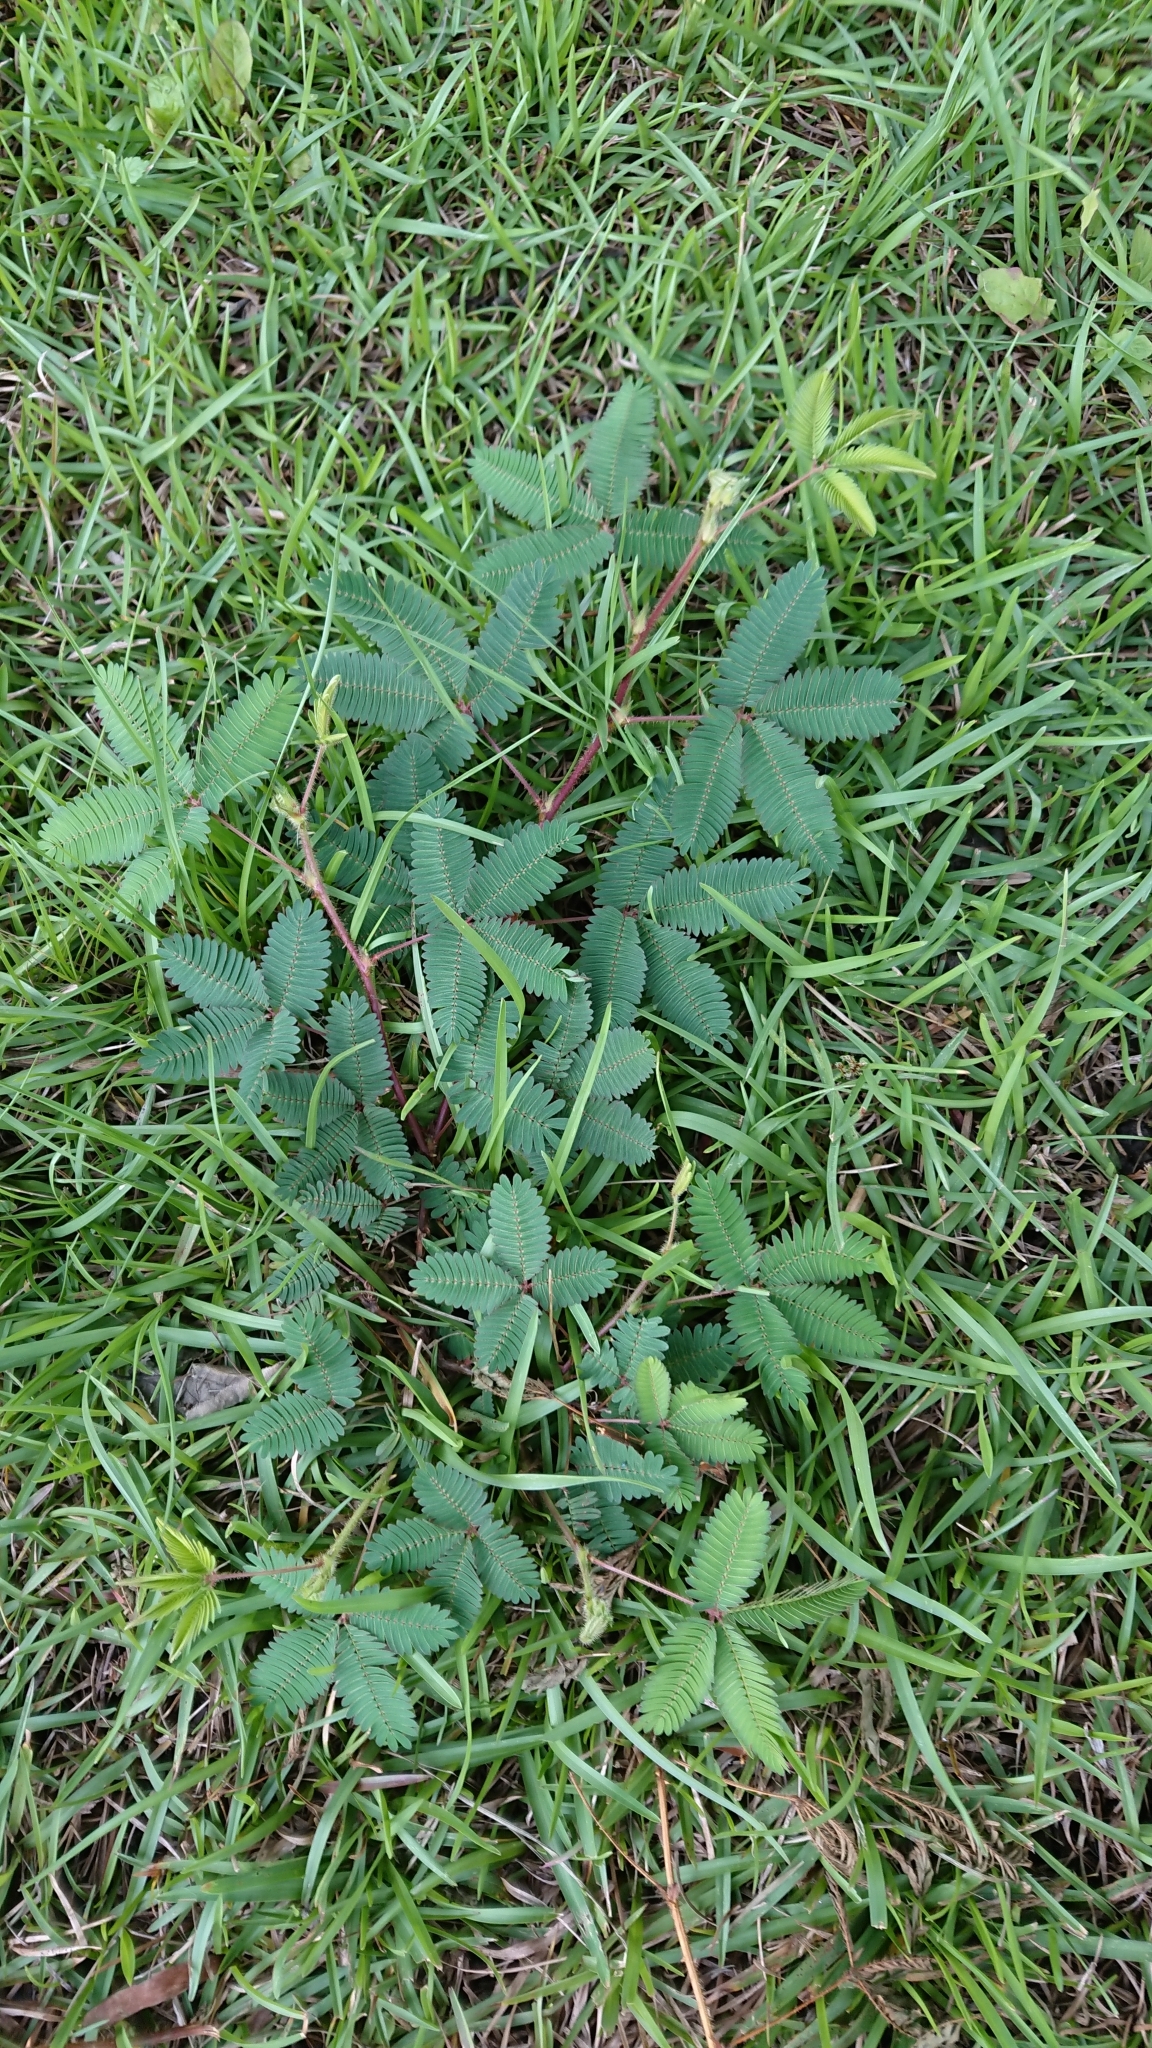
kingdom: Plantae
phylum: Tracheophyta
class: Magnoliopsida
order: Fabales
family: Fabaceae
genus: Mimosa
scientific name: Mimosa pudica
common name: Sensitive plant
